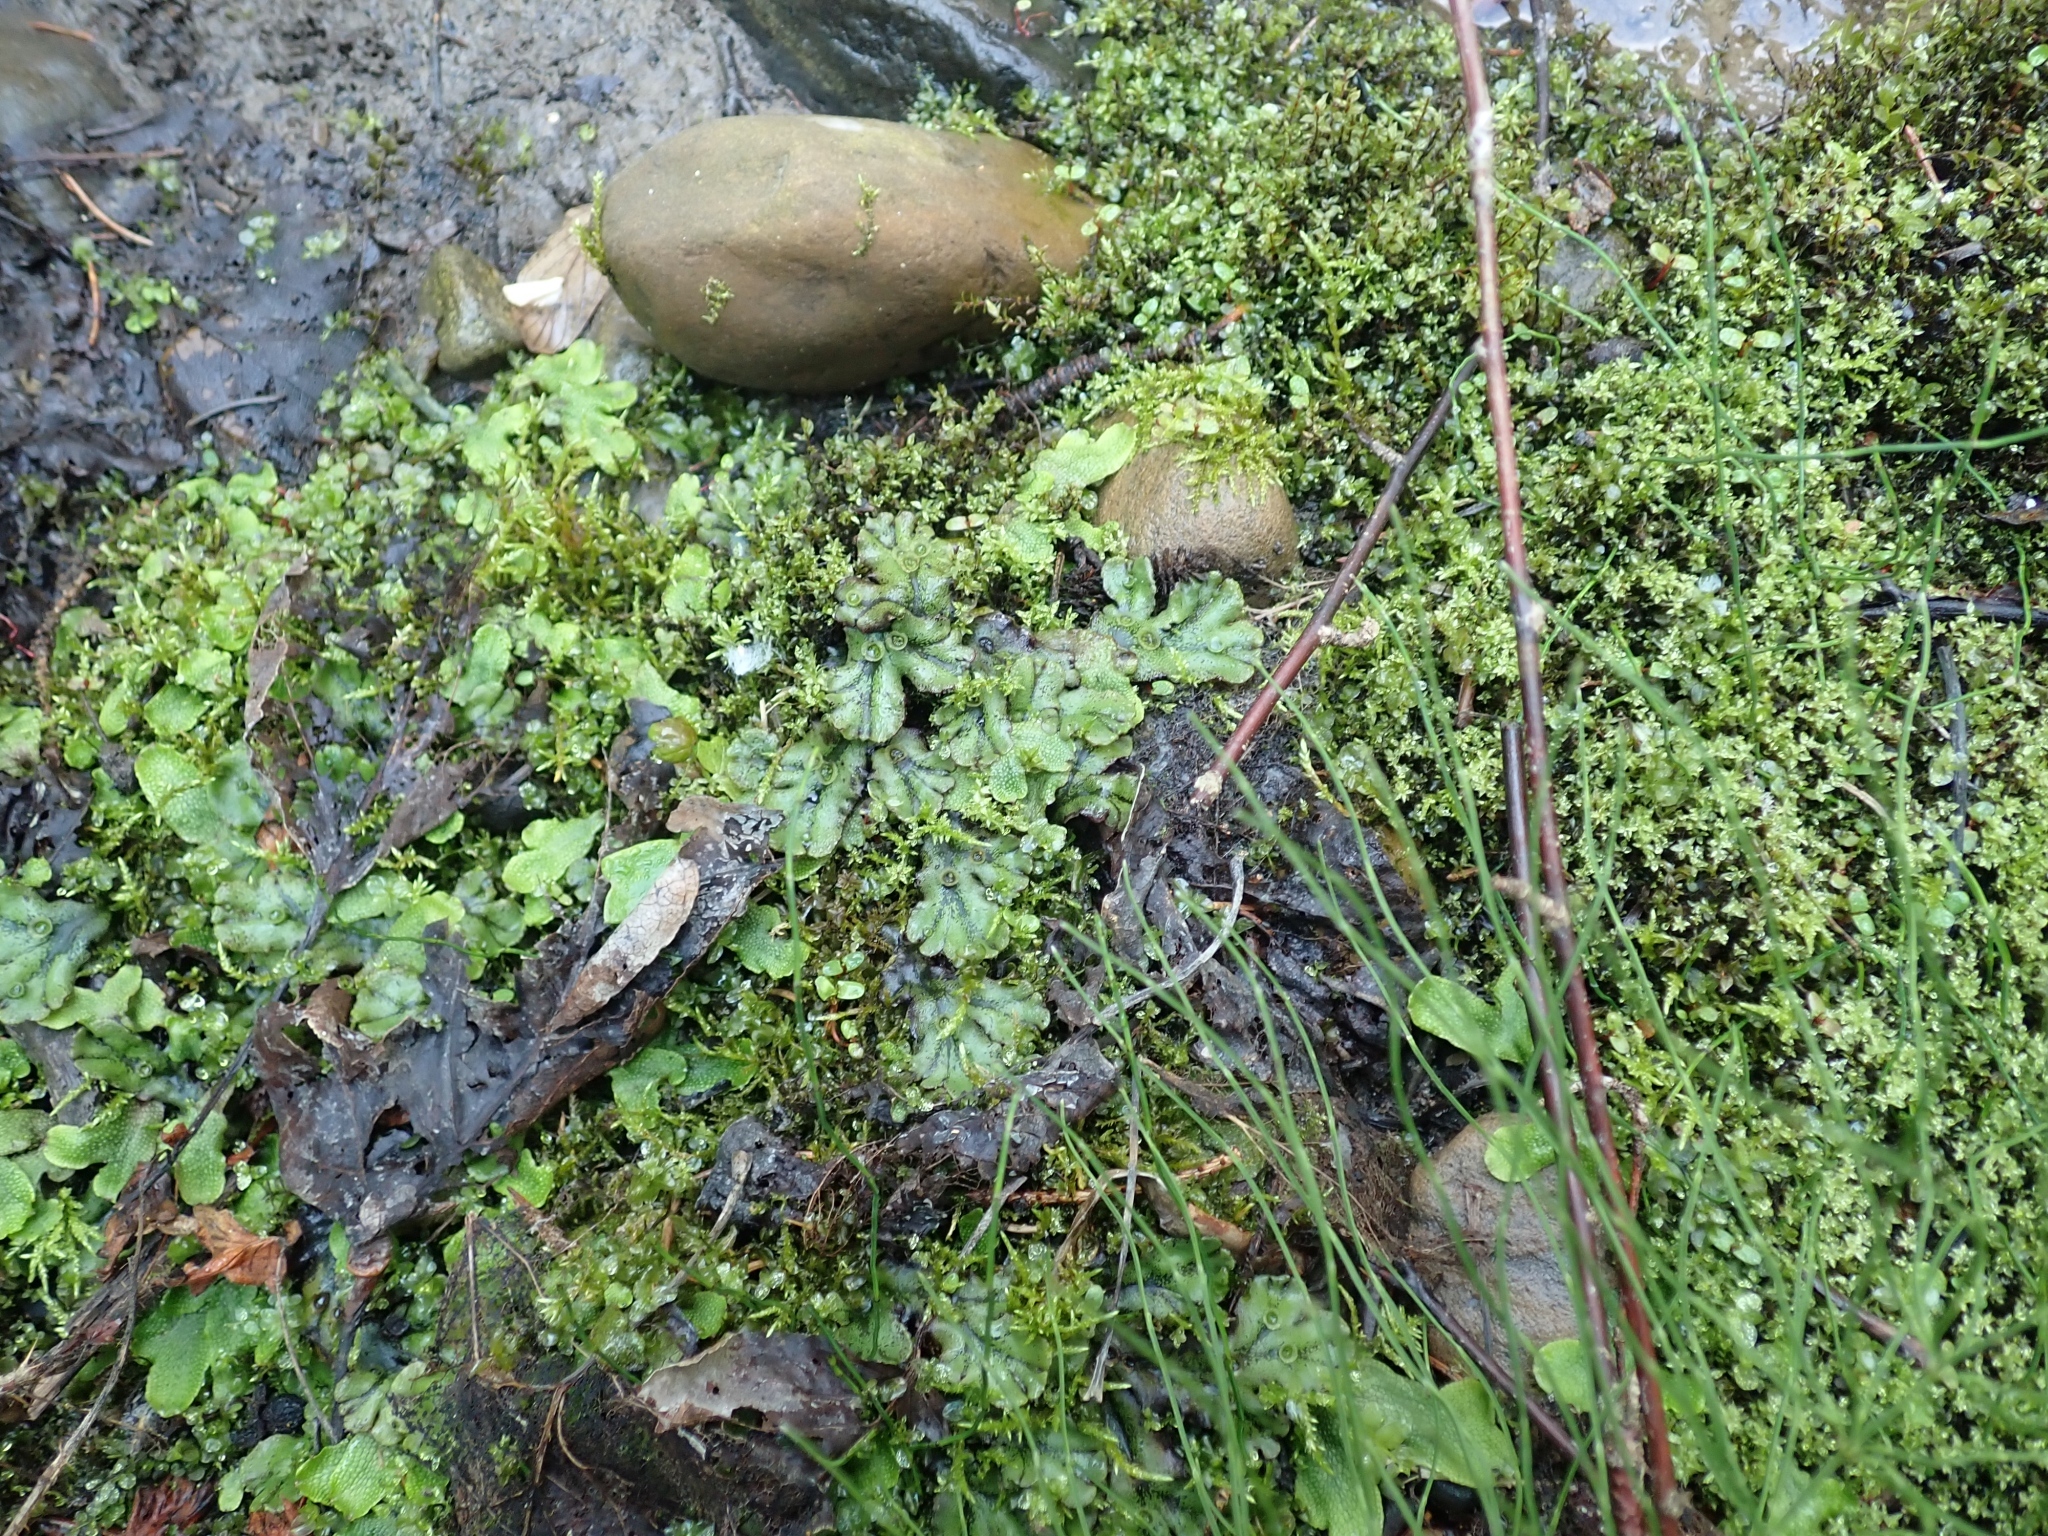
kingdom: Plantae
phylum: Marchantiophyta
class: Marchantiopsida
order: Marchantiales
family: Marchantiaceae
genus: Marchantia
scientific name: Marchantia polymorpha
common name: Common liverwort
